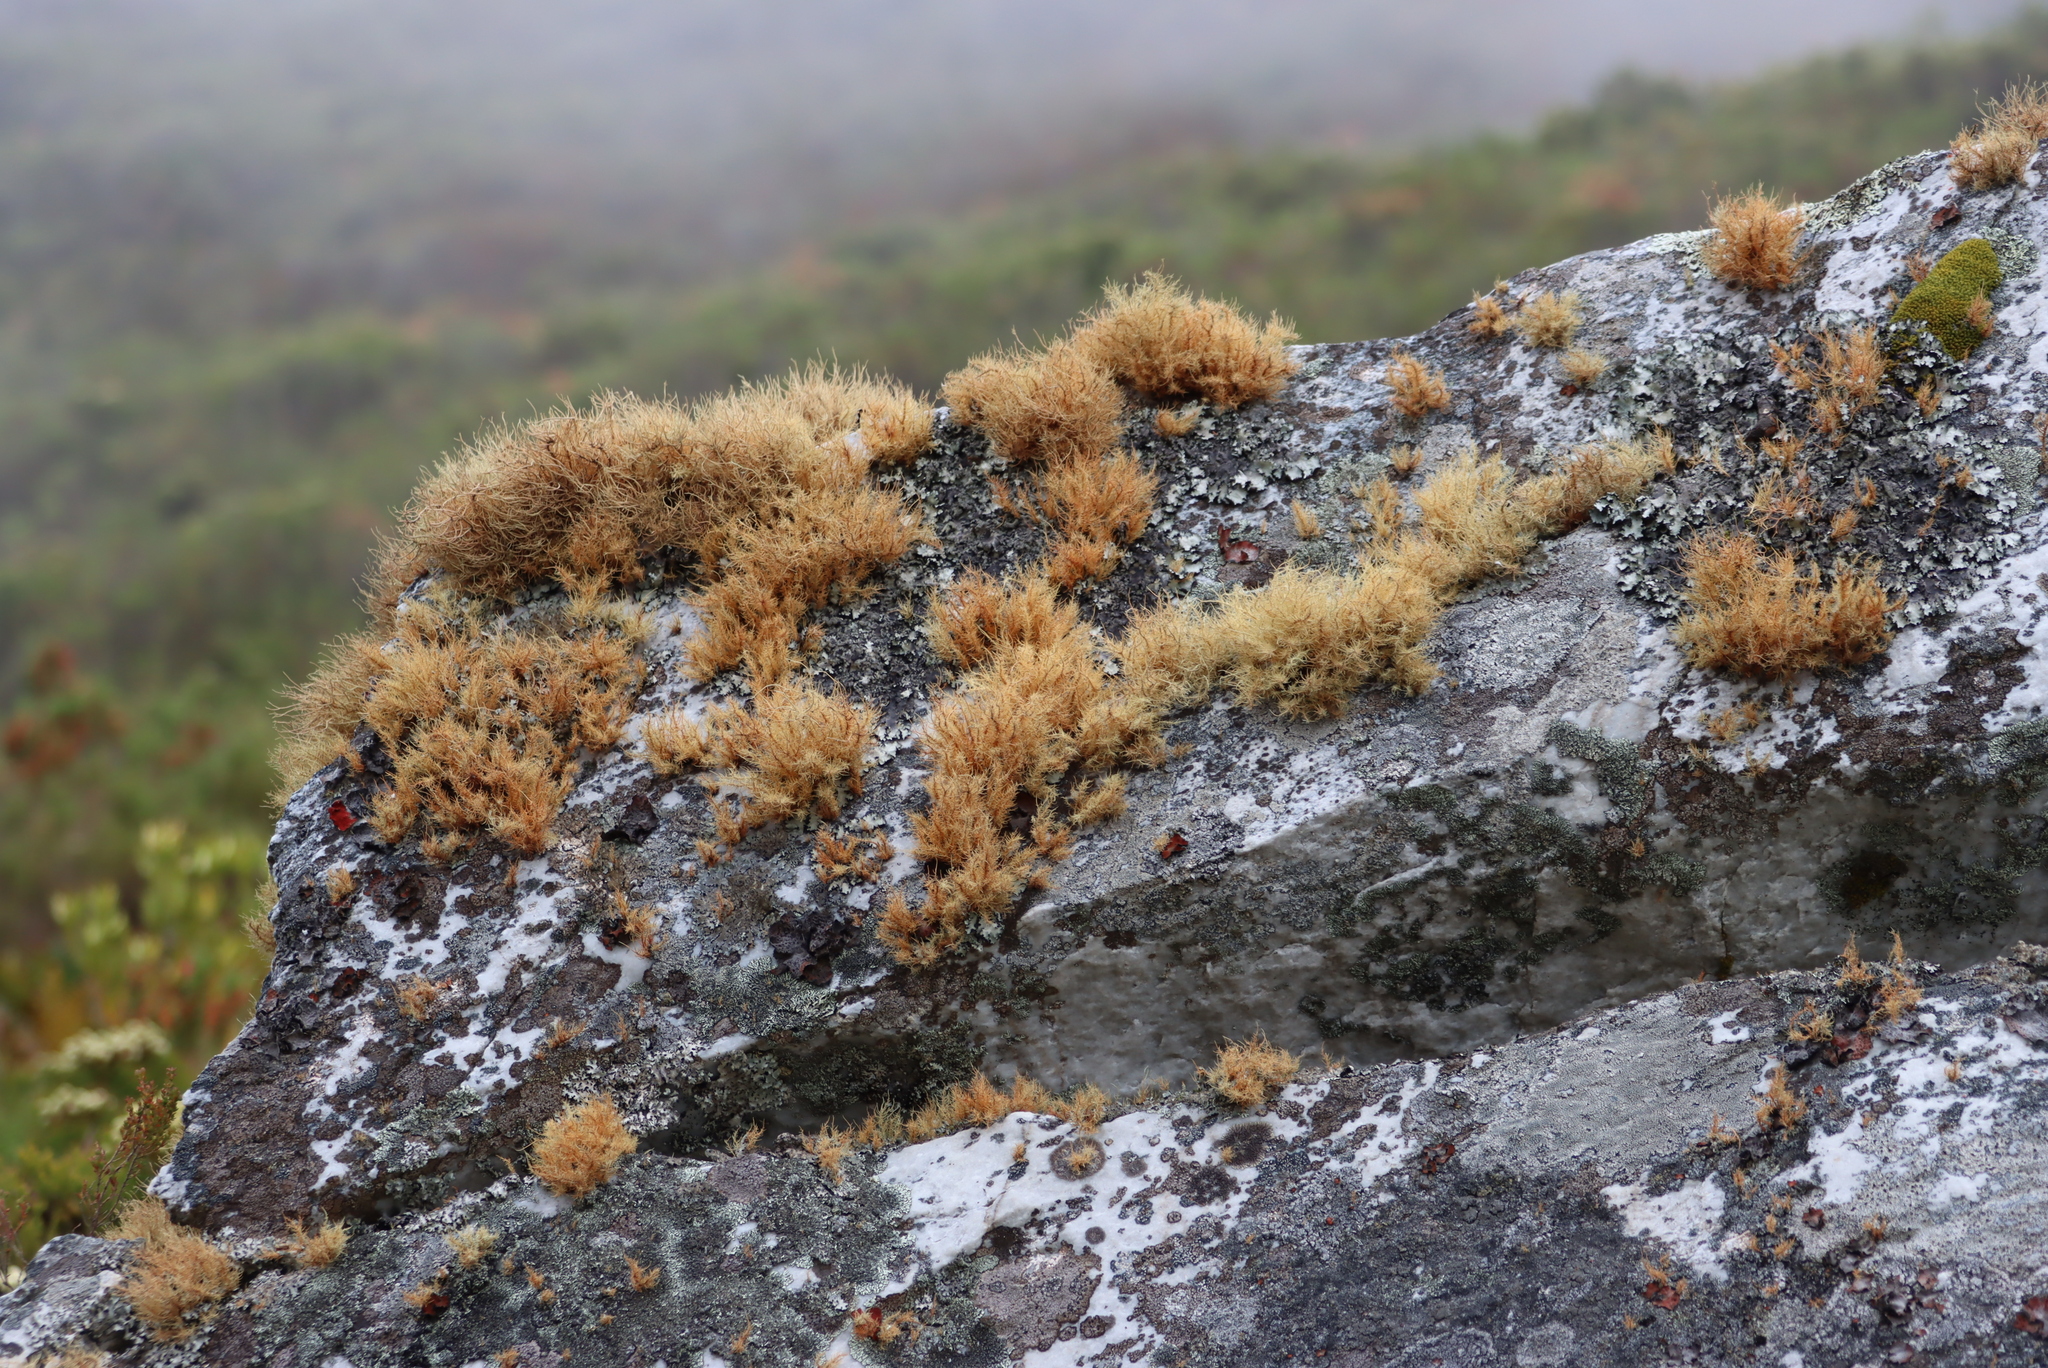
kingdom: Fungi
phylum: Ascomycota
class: Lecanoromycetes
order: Lecanorales
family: Parmeliaceae
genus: Usnea
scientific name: Usnea maculata
